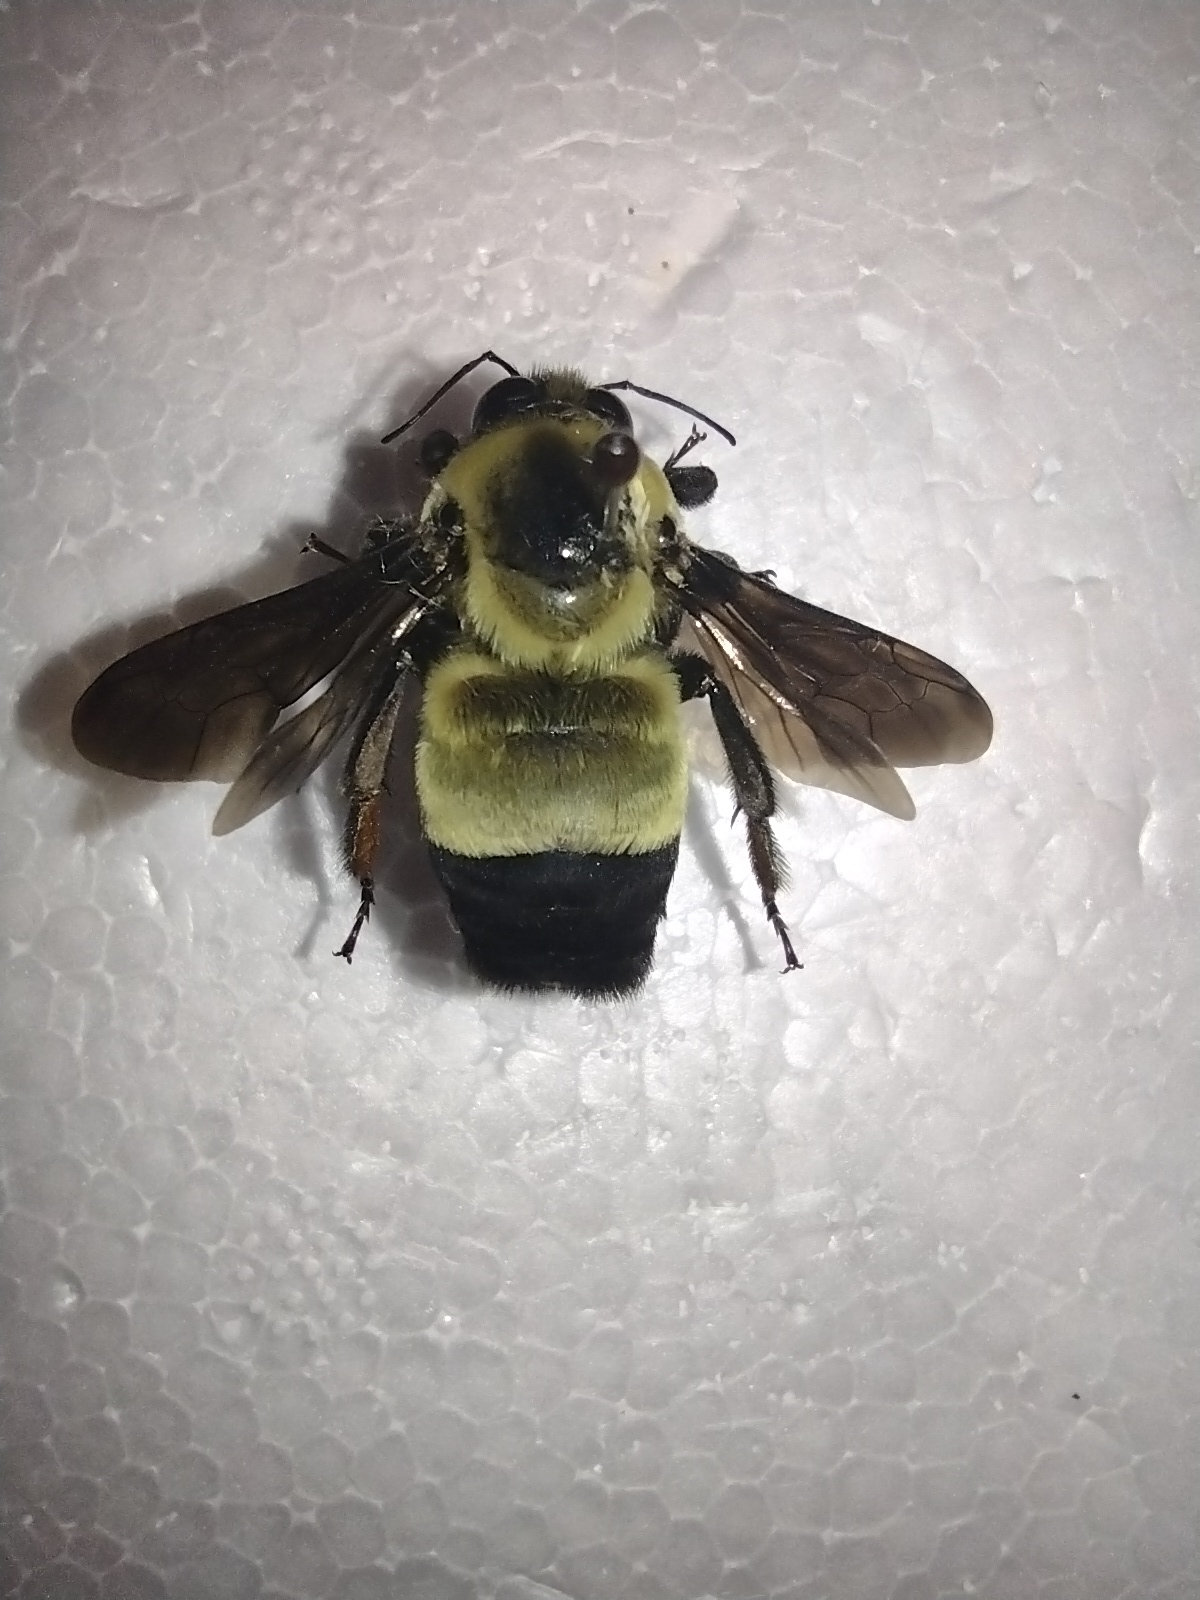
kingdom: Animalia
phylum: Arthropoda
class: Insecta
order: Hymenoptera
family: Apidae
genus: Bombus
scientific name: Bombus fraternus
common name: Southern plains bumble bee
